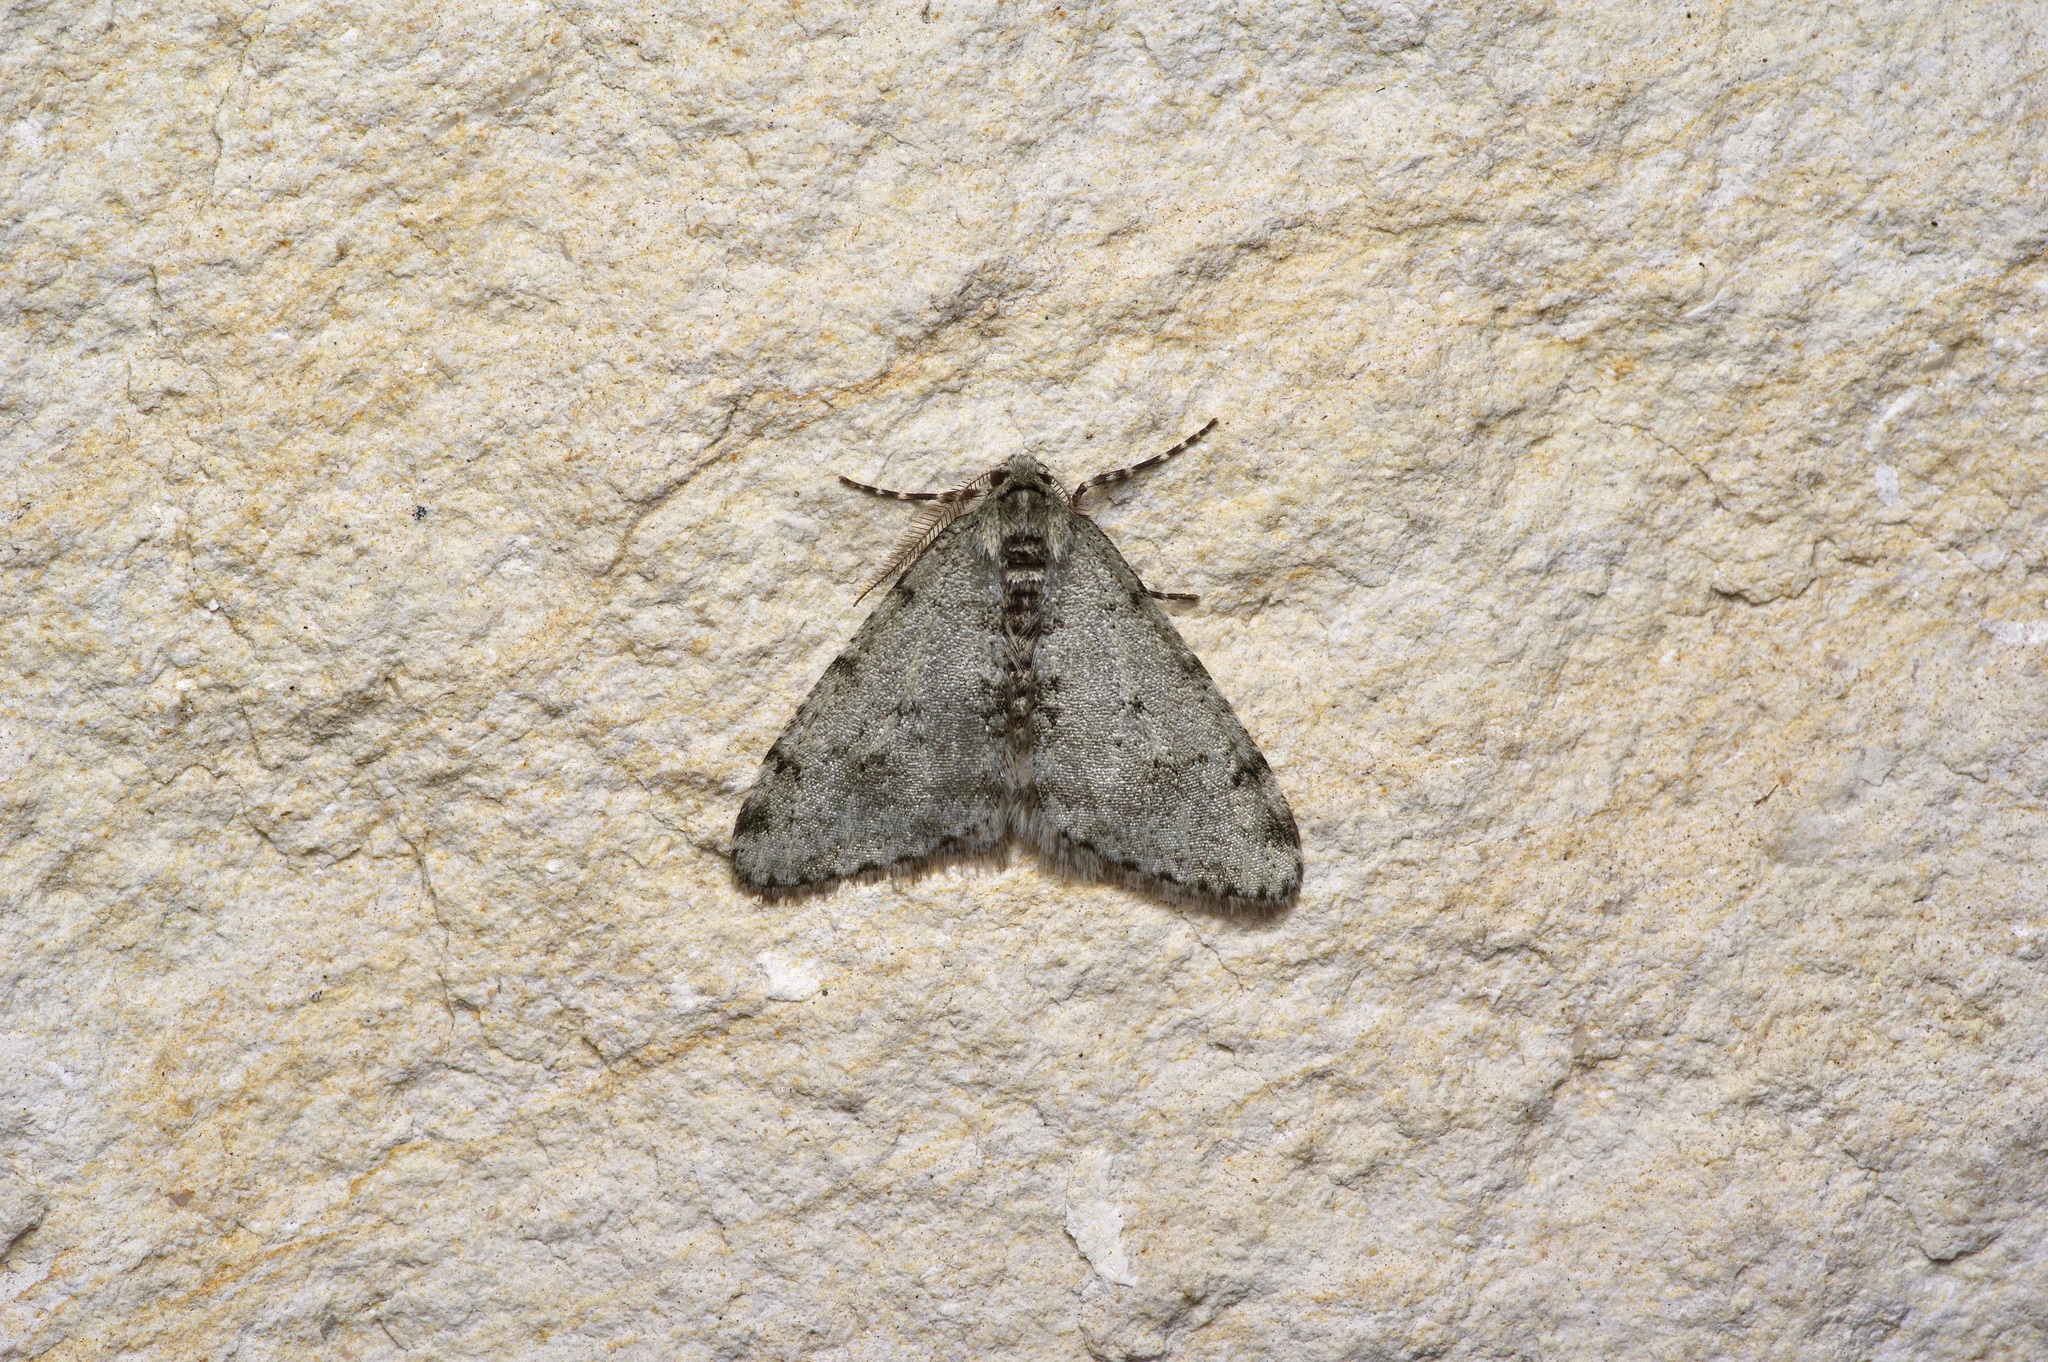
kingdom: Animalia
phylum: Arthropoda
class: Insecta
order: Lepidoptera
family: Geometridae
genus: Phigalia
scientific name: Phigalia strigataria
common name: Small phigalia
